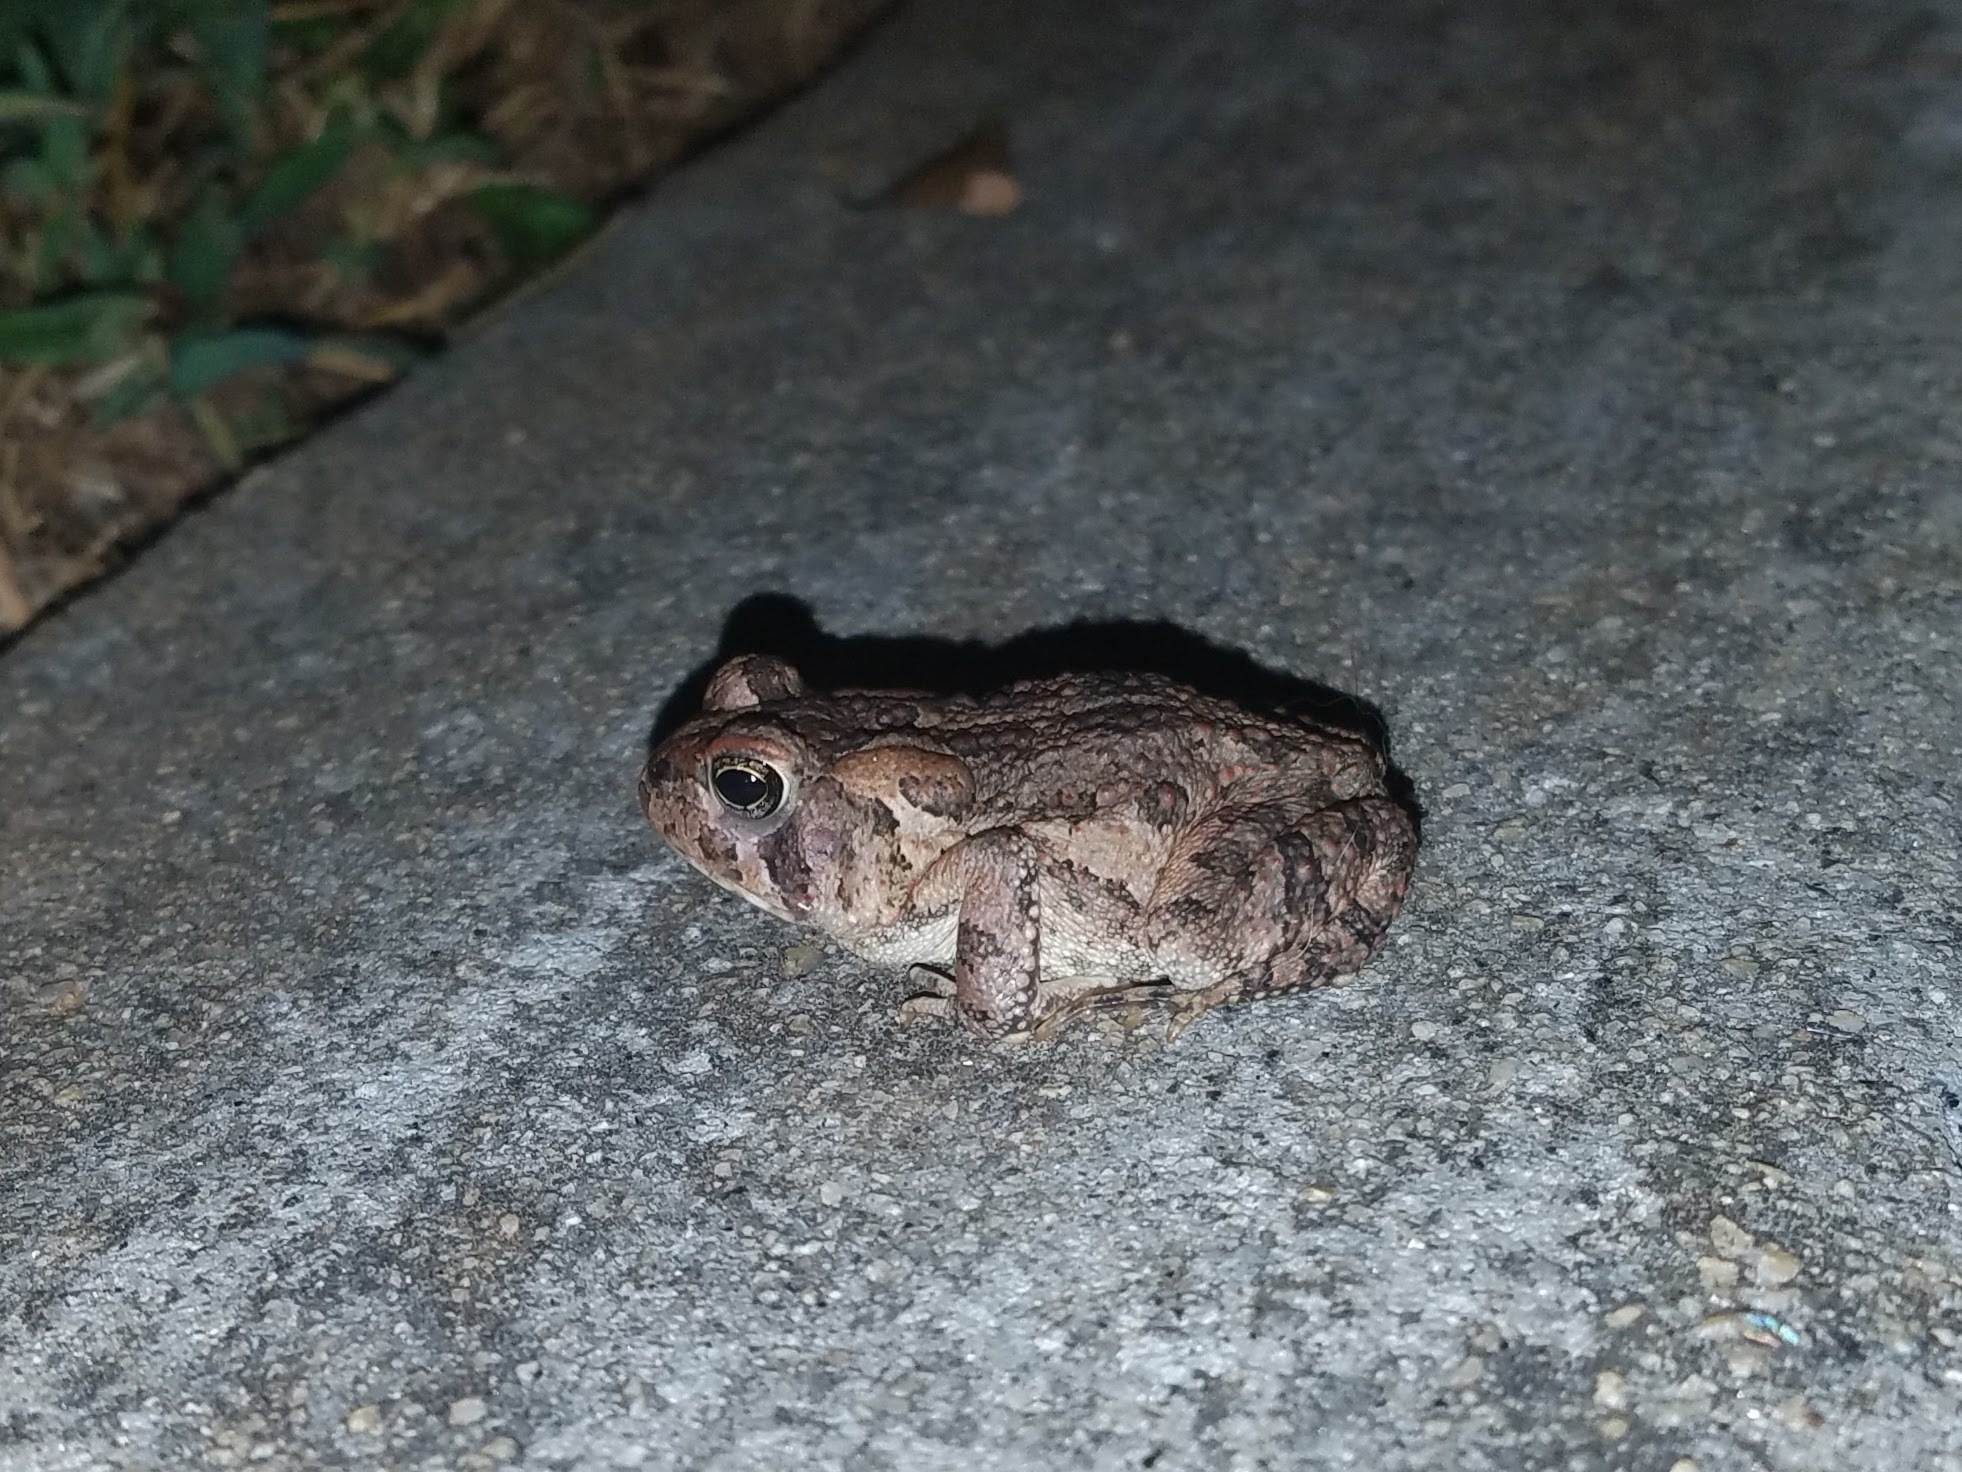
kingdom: Animalia
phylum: Chordata
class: Amphibia
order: Anura
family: Bufonidae
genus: Anaxyrus
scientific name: Anaxyrus fowleri
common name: Fowler's toad
